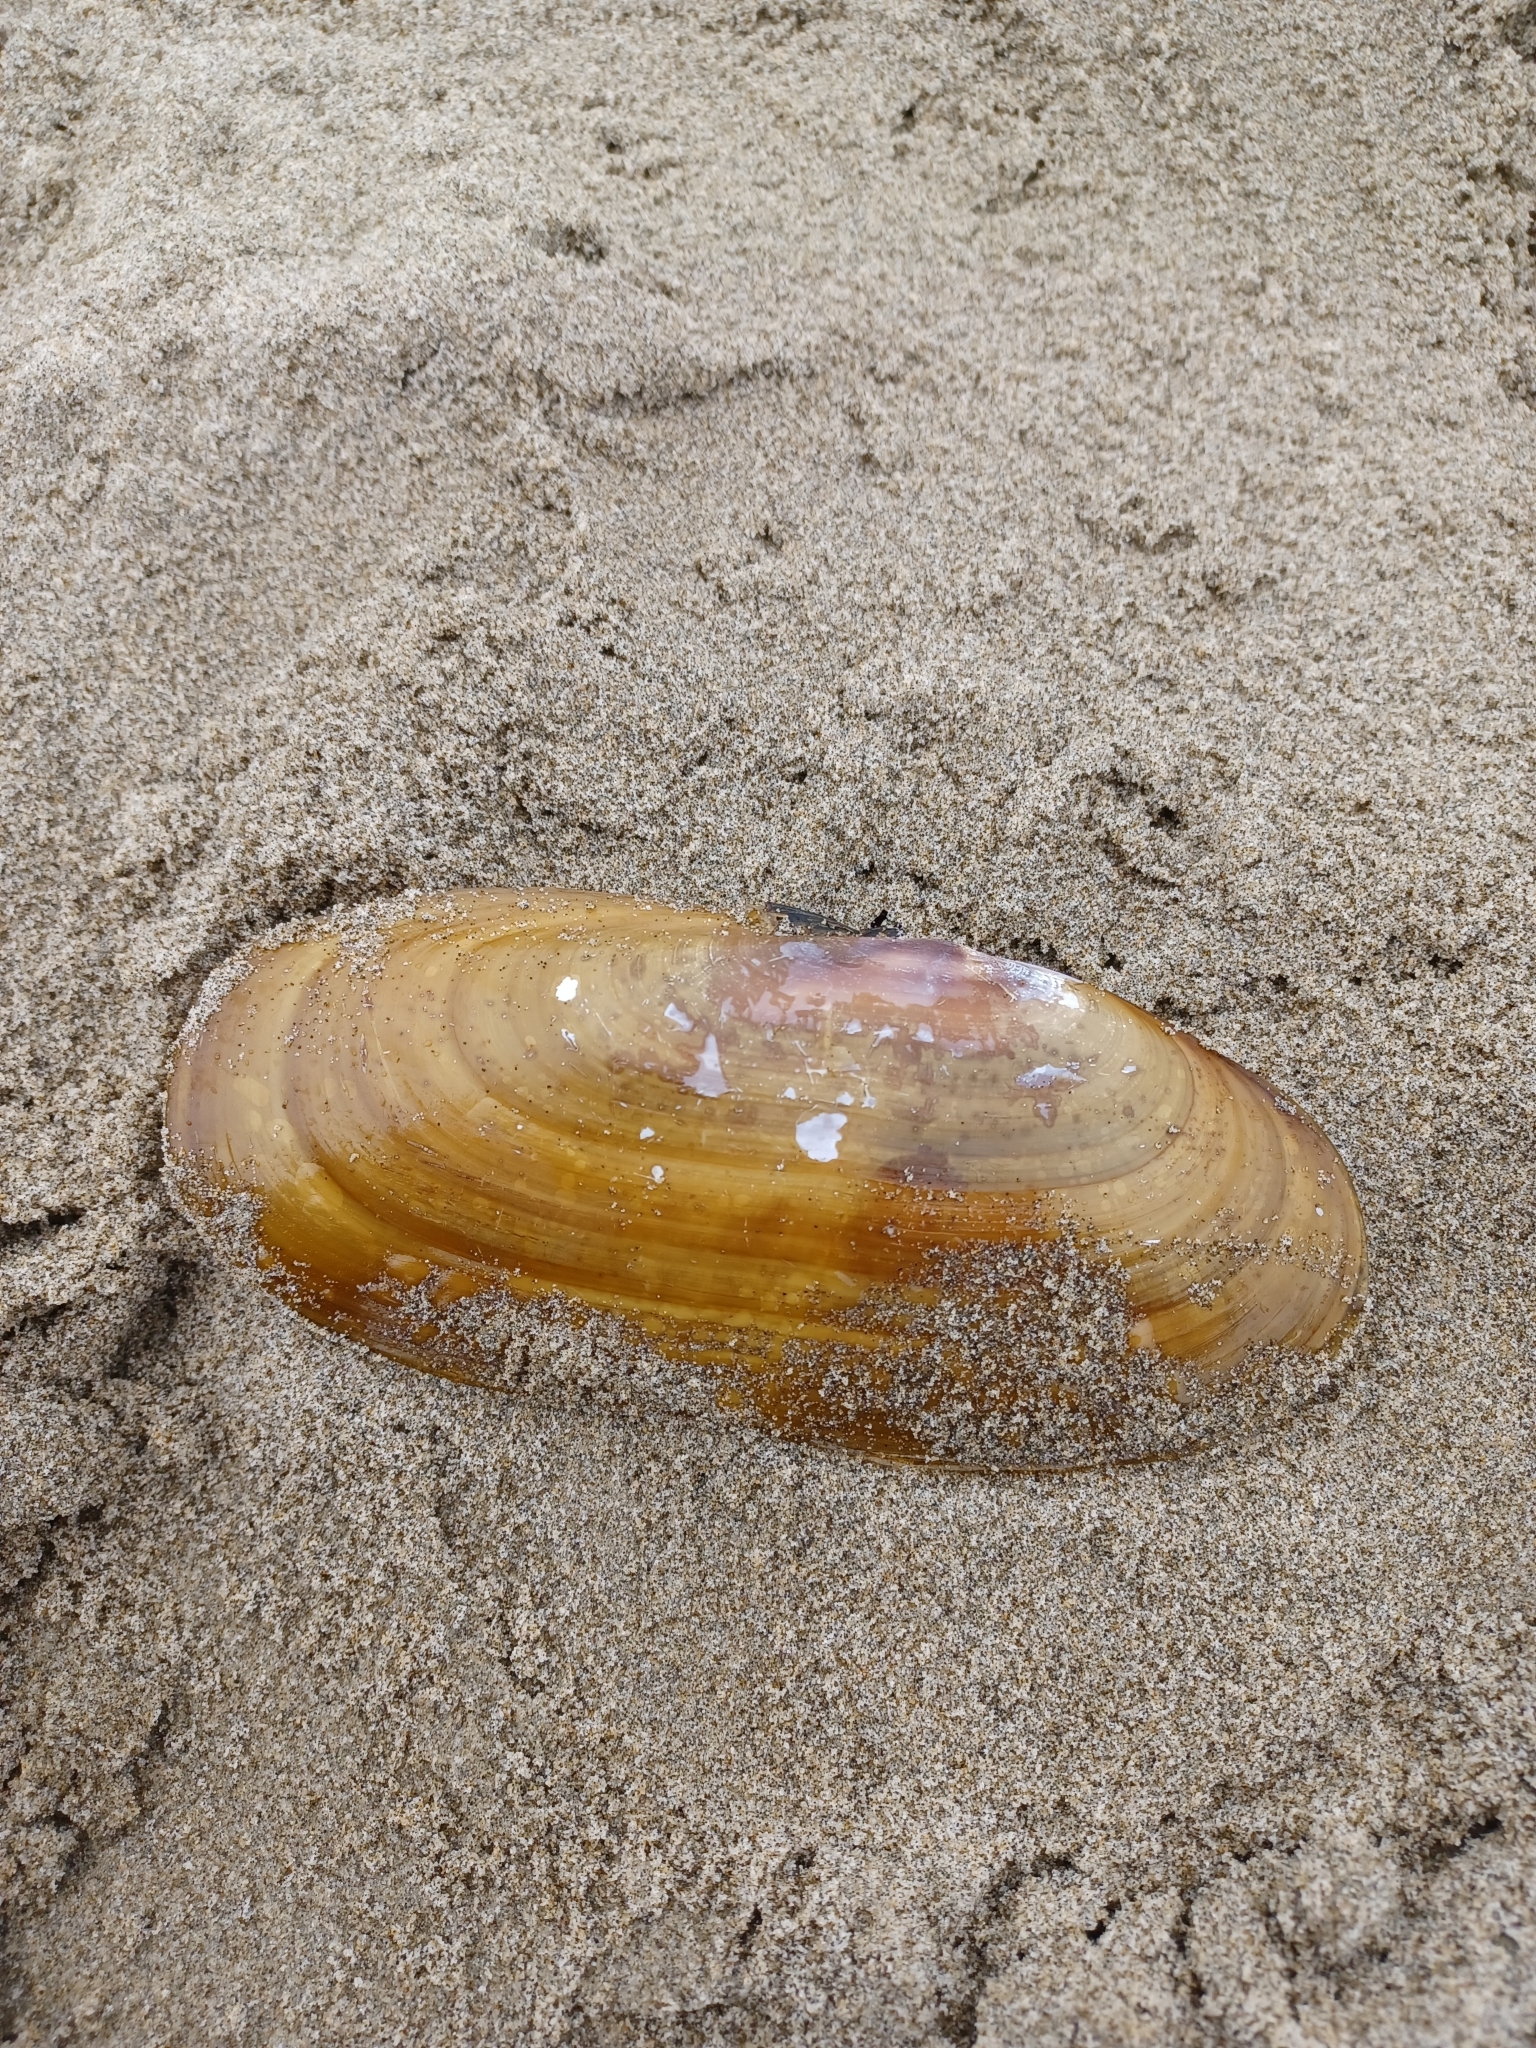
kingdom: Animalia
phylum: Mollusca
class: Bivalvia
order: Adapedonta
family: Pharidae
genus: Siliqua
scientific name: Siliqua patula
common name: Pacific razor clam
